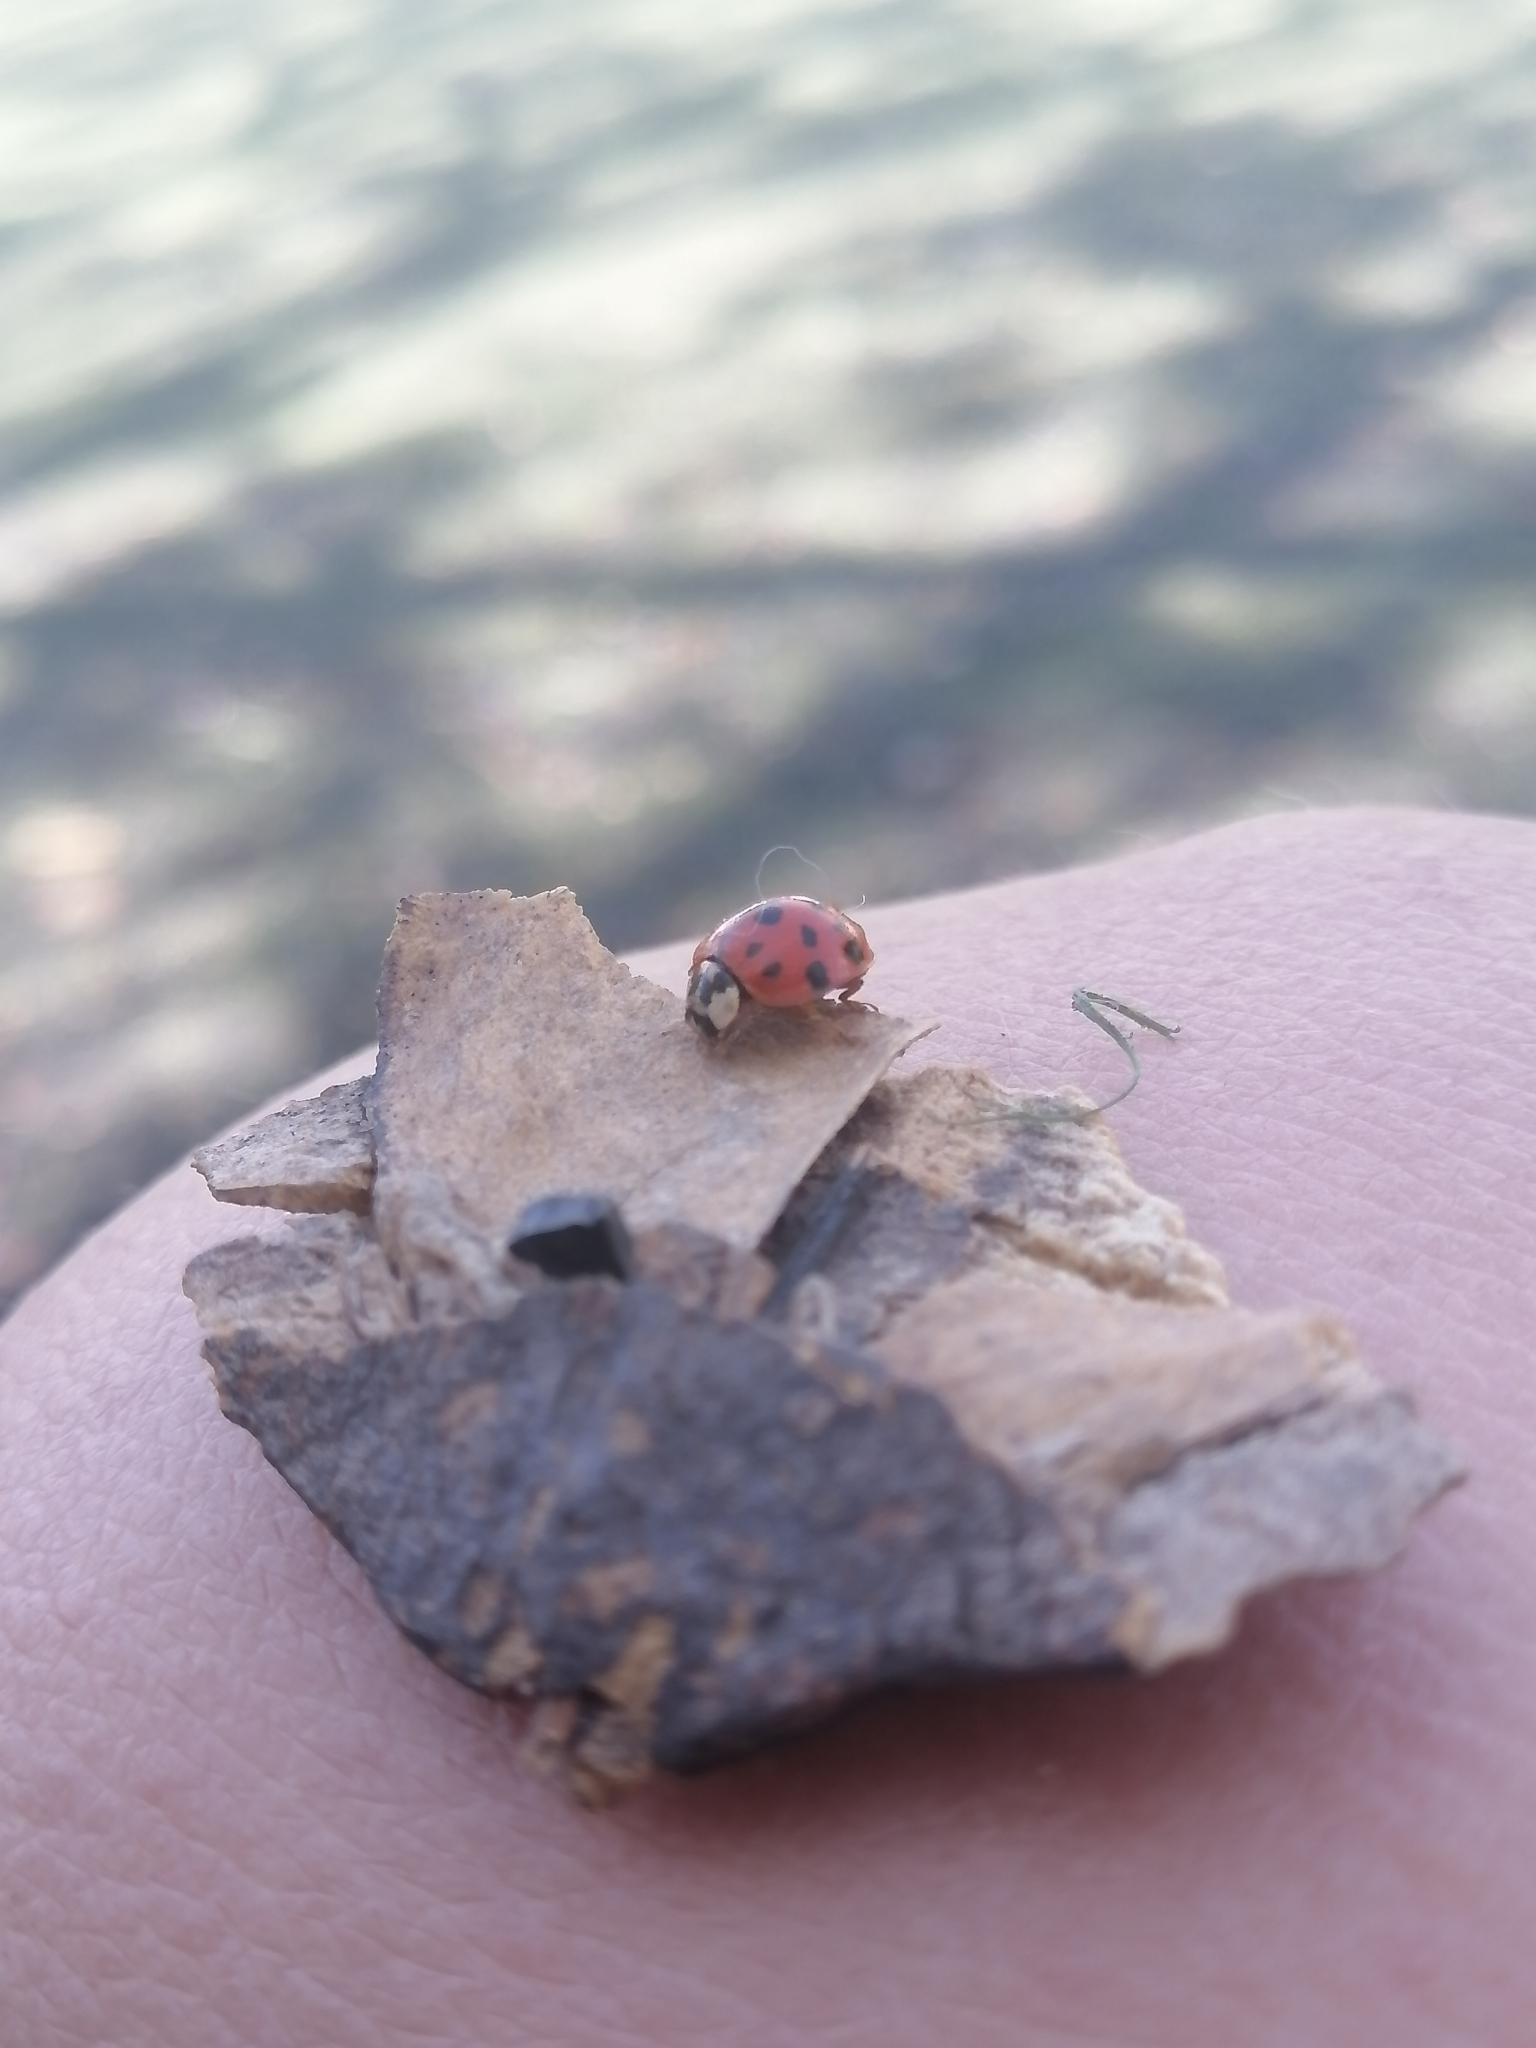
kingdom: Animalia
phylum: Arthropoda
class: Insecta
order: Coleoptera
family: Coccinellidae
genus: Harmonia
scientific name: Harmonia axyridis
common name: Harlequin ladybird
